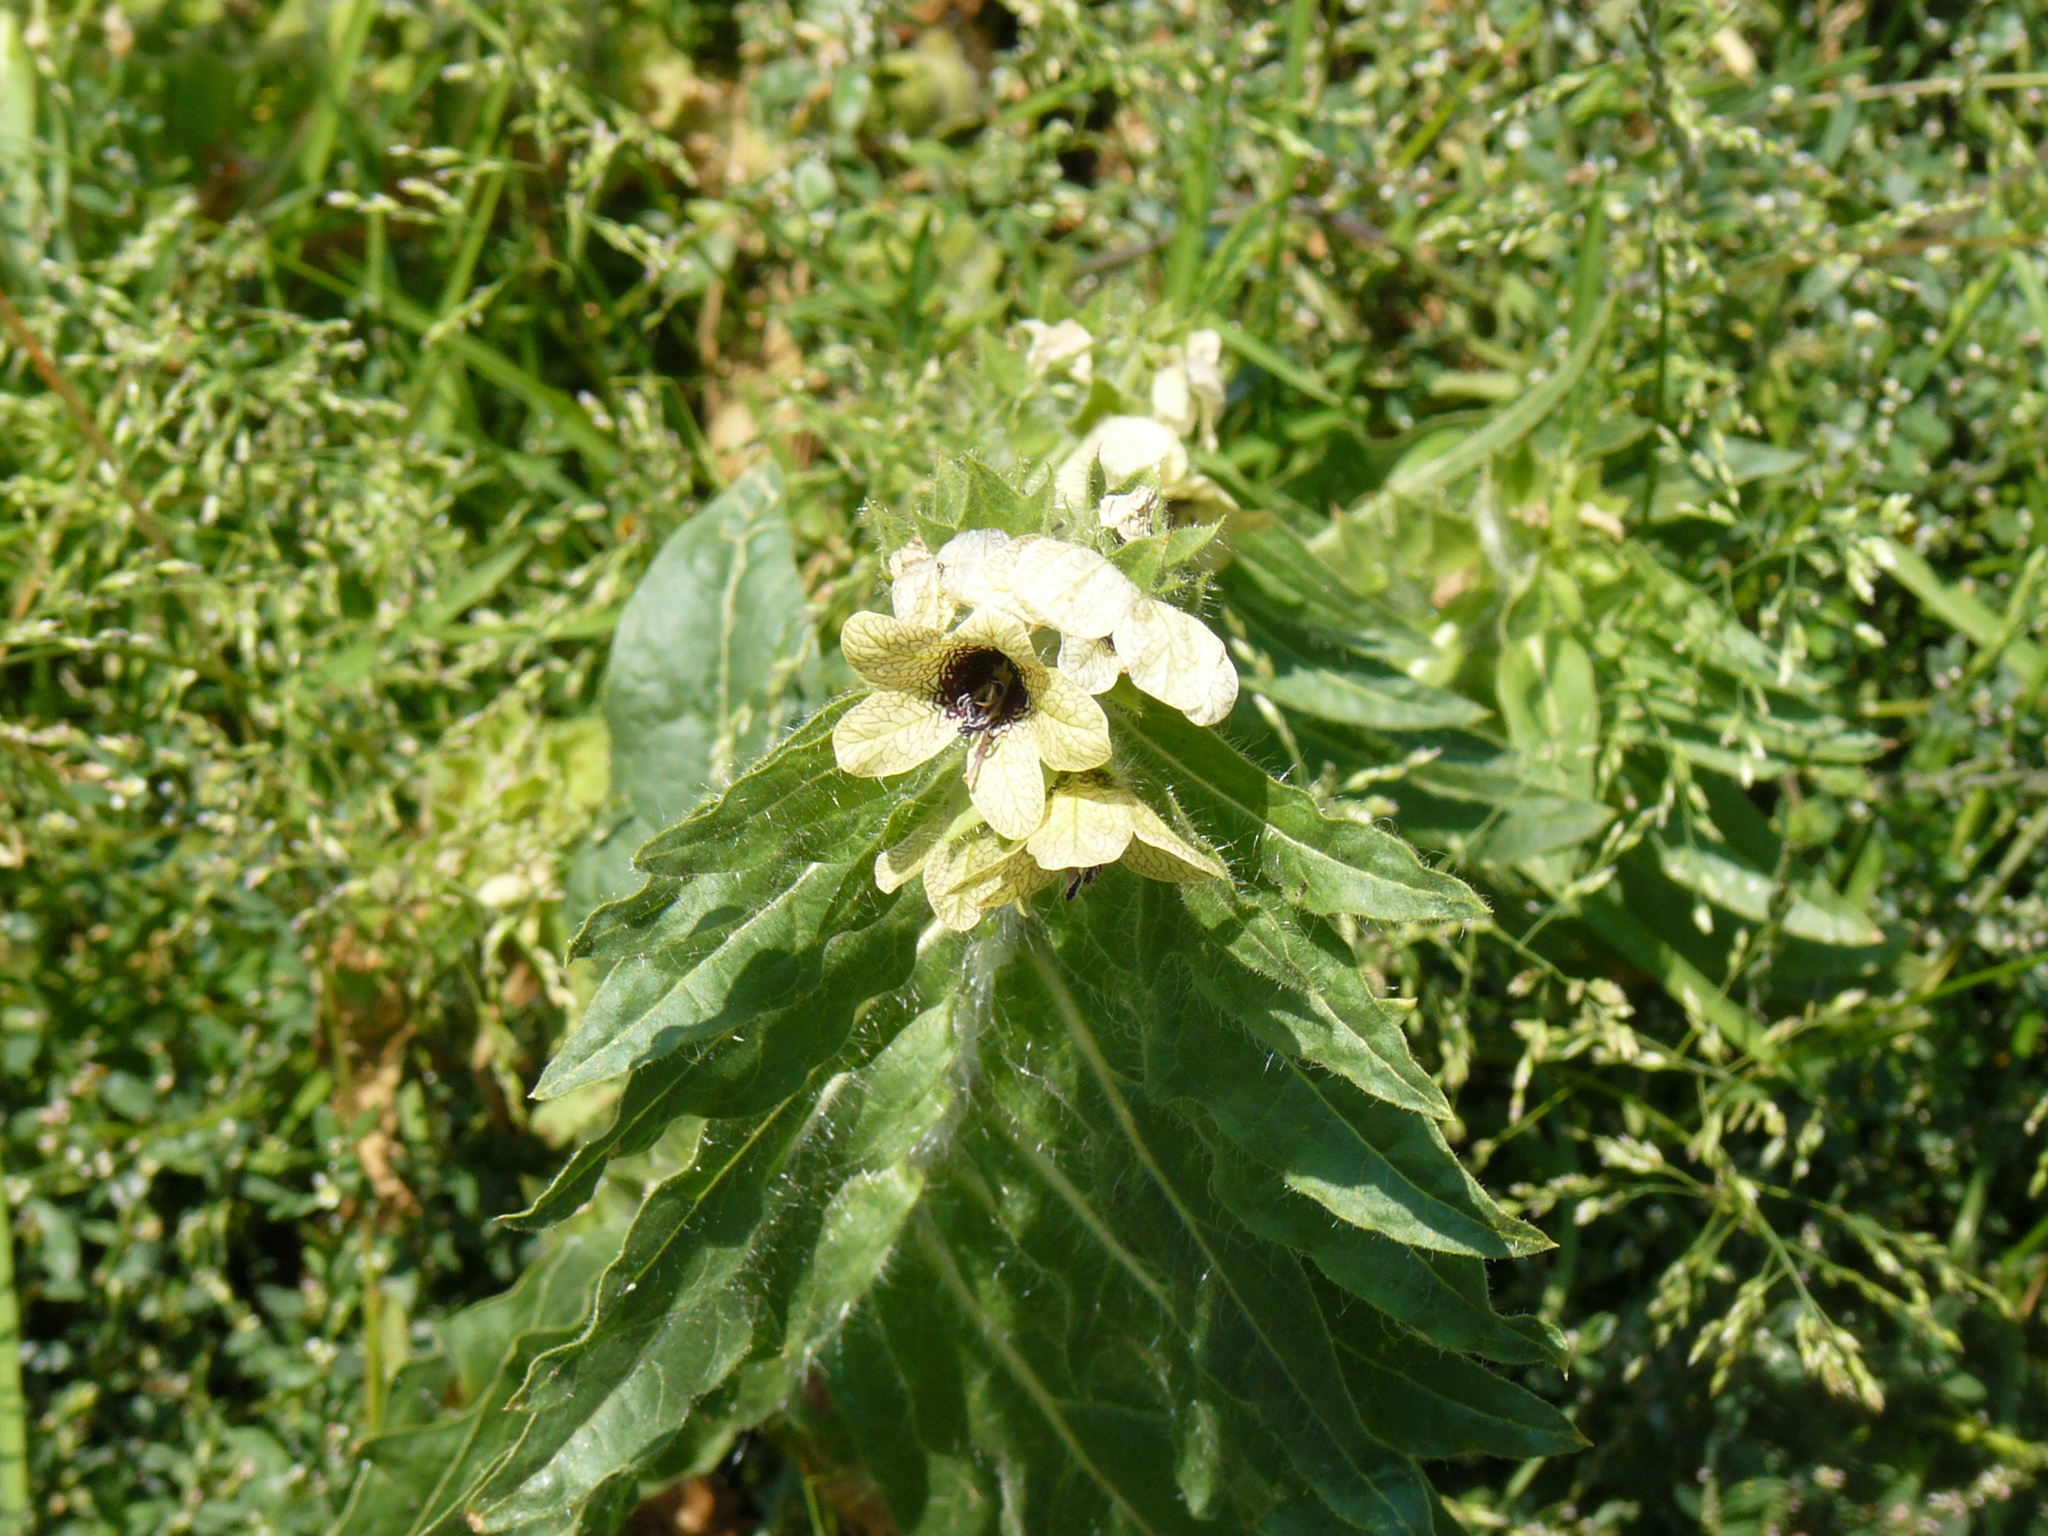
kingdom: Plantae
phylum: Tracheophyta
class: Magnoliopsida
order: Solanales
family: Solanaceae
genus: Hyoscyamus
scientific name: Hyoscyamus niger
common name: Henbane
